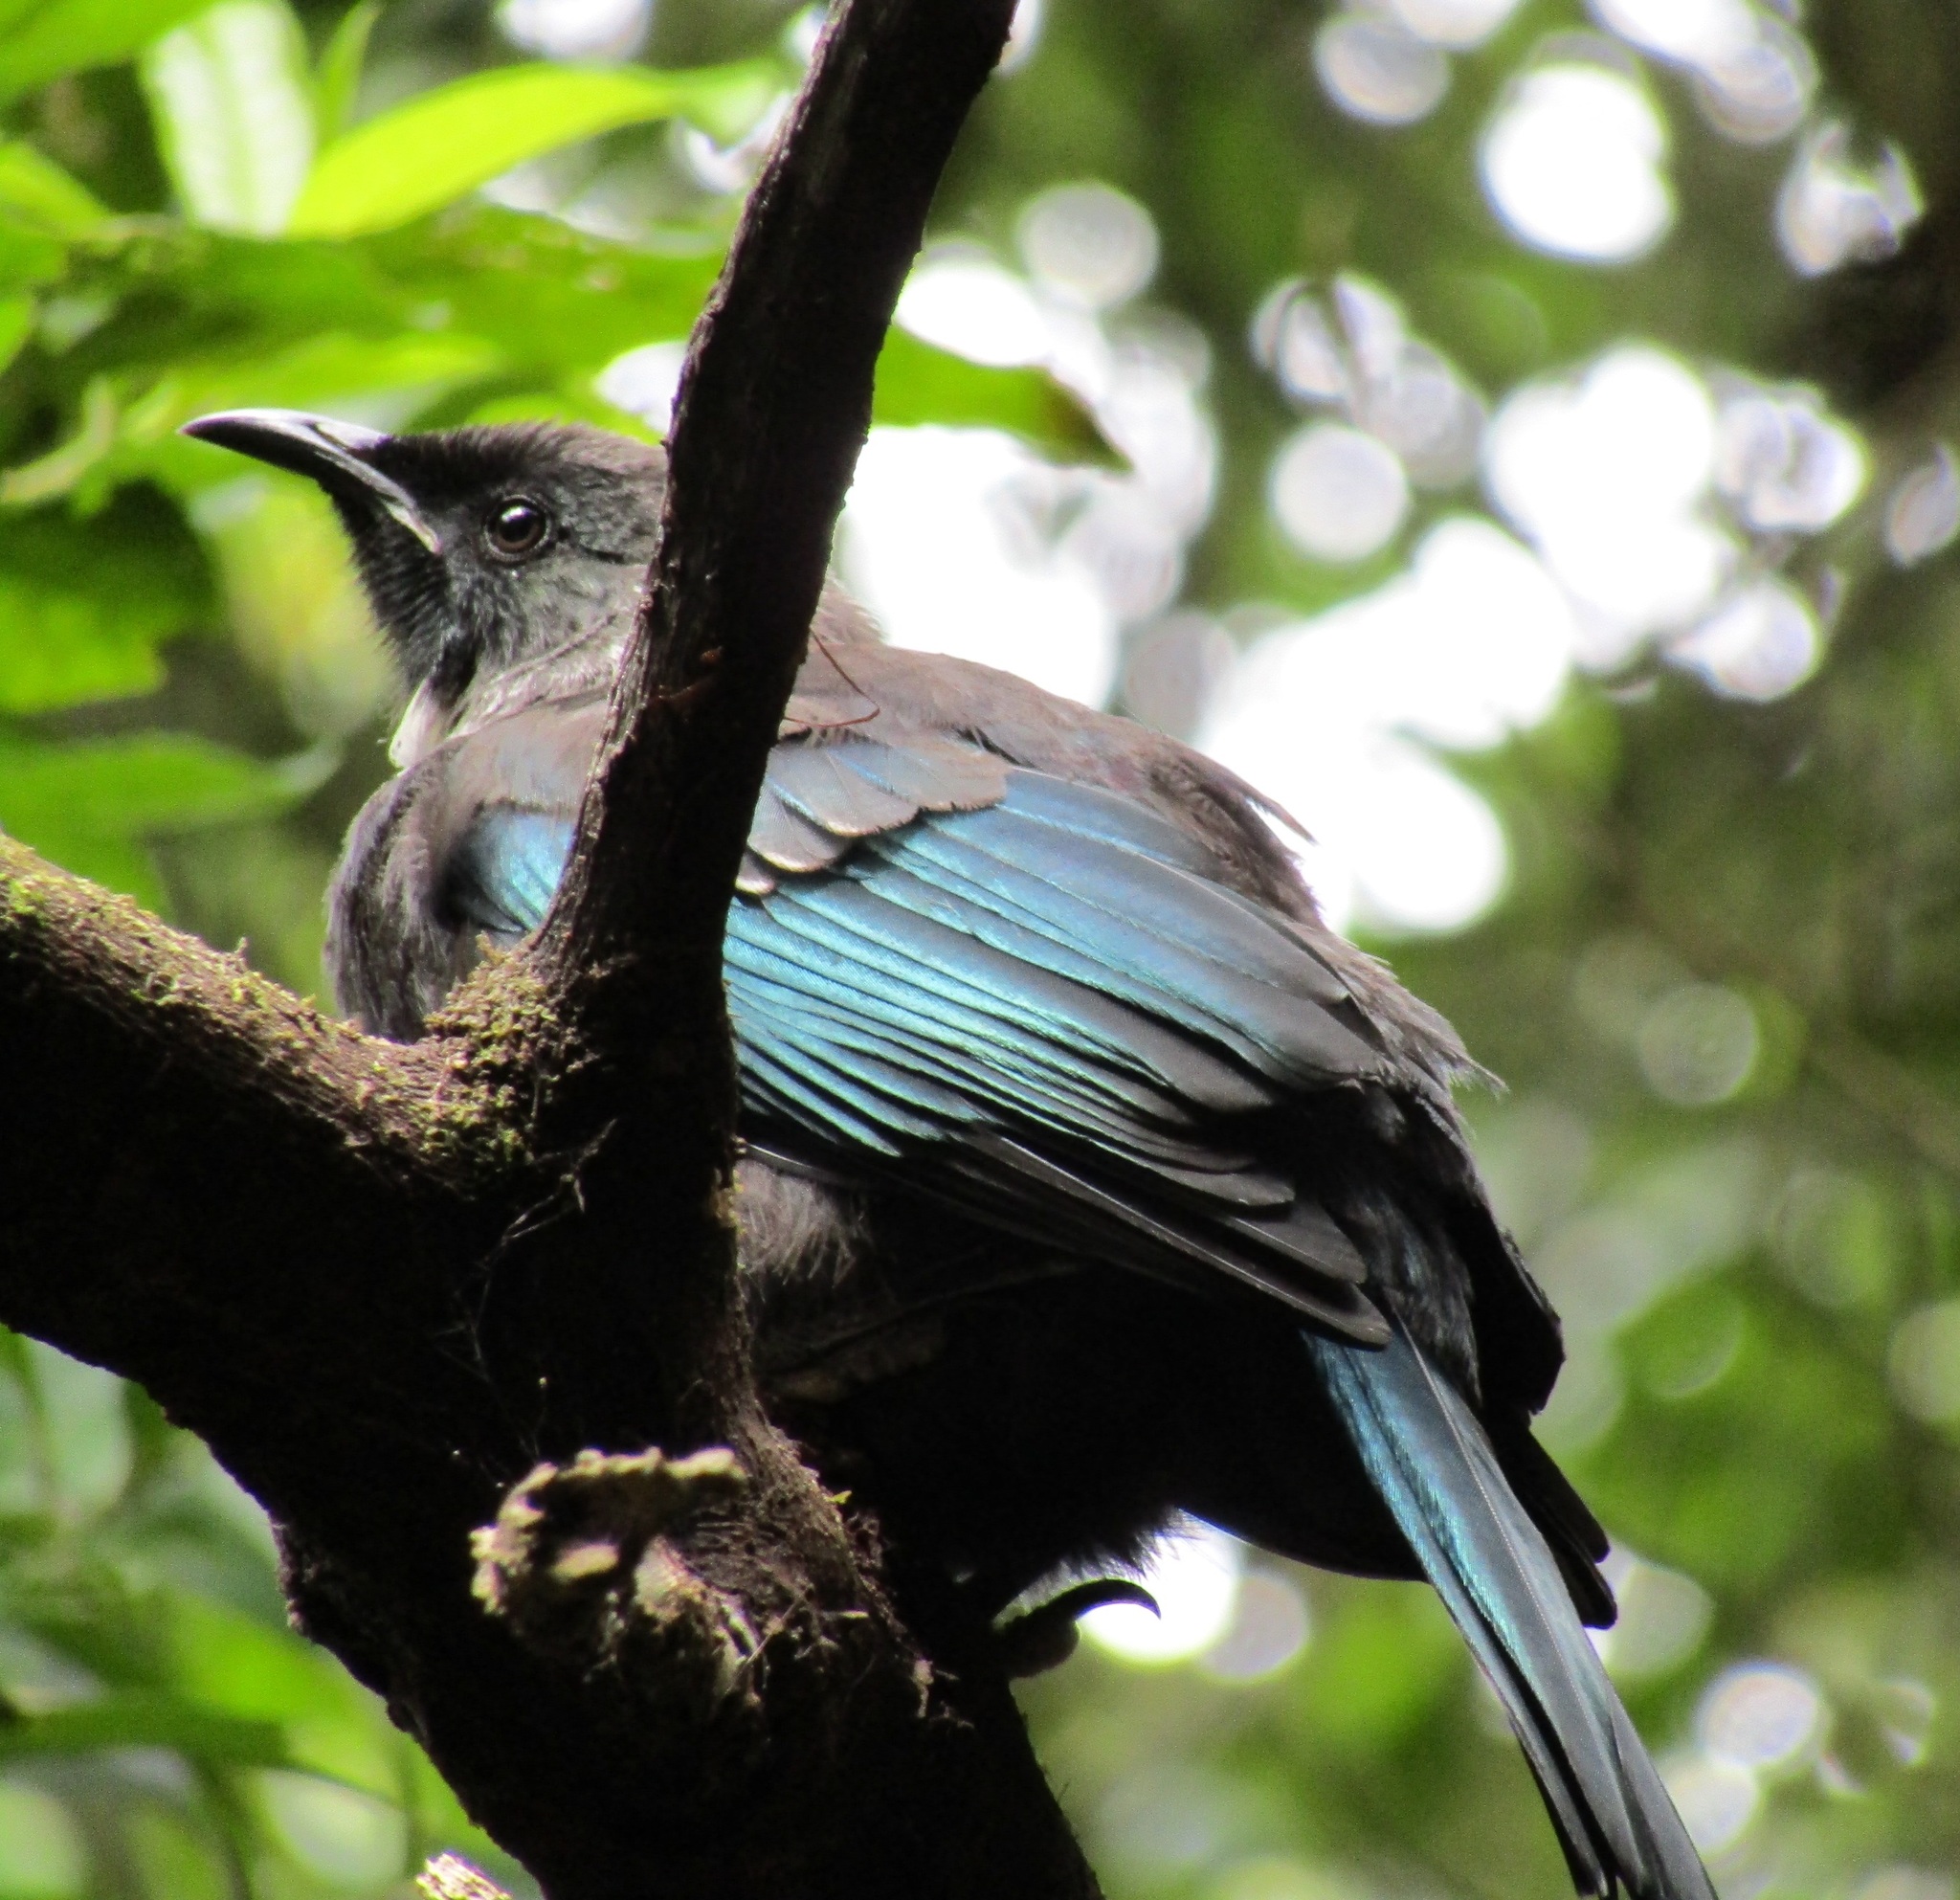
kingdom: Animalia
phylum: Chordata
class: Aves
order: Passeriformes
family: Meliphagidae
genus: Prosthemadera
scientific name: Prosthemadera novaeseelandiae
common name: Tui
